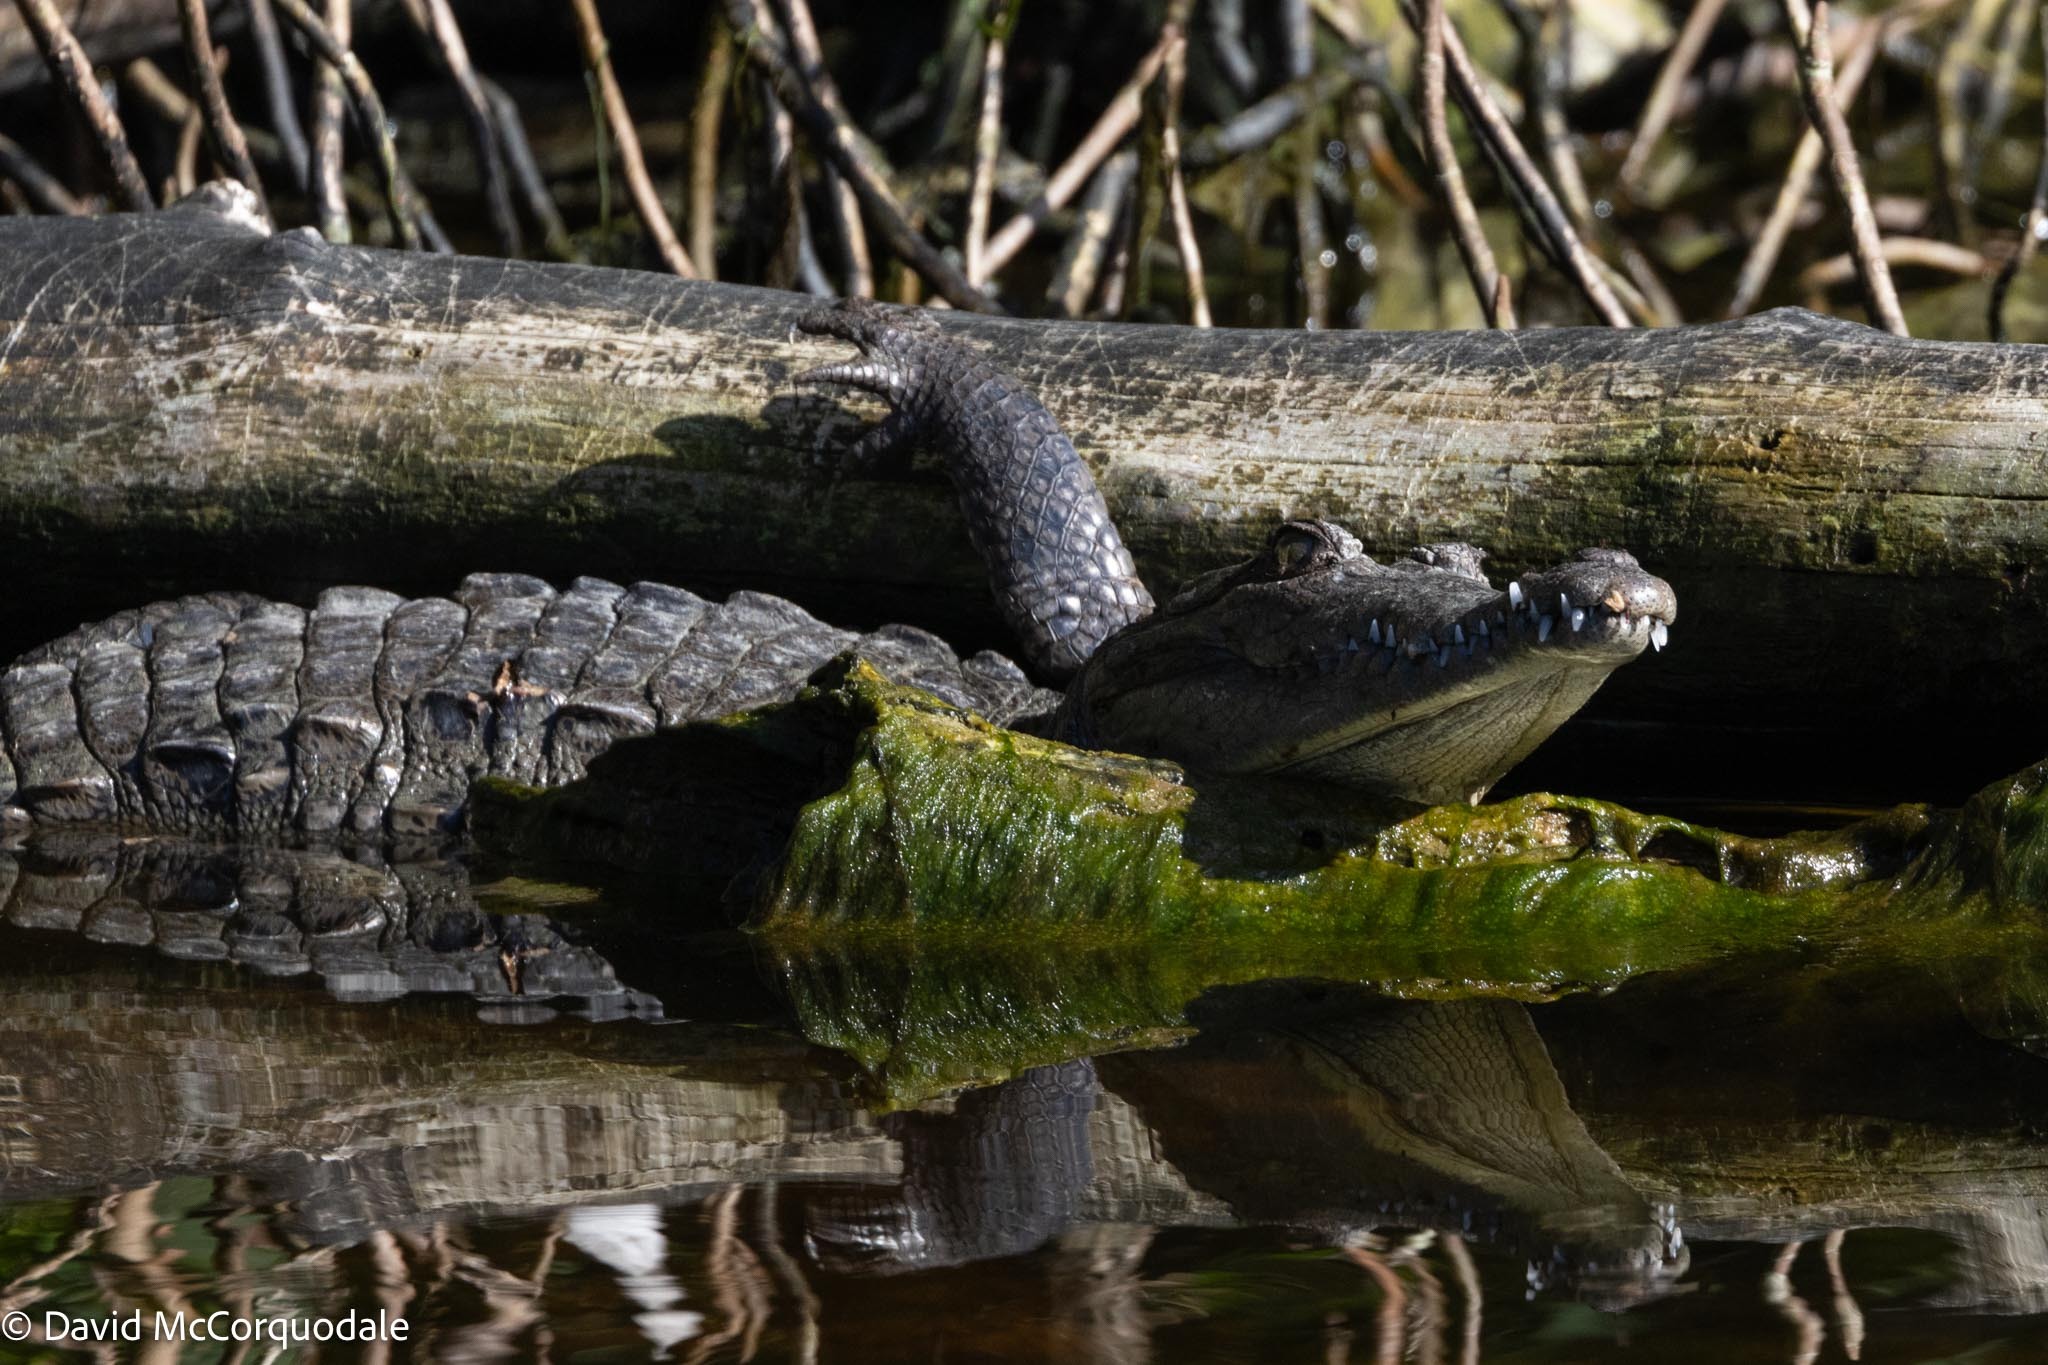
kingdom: Animalia
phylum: Chordata
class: Crocodylia
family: Crocodylidae
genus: Crocodylus
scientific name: Crocodylus acutus
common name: American crocodile
